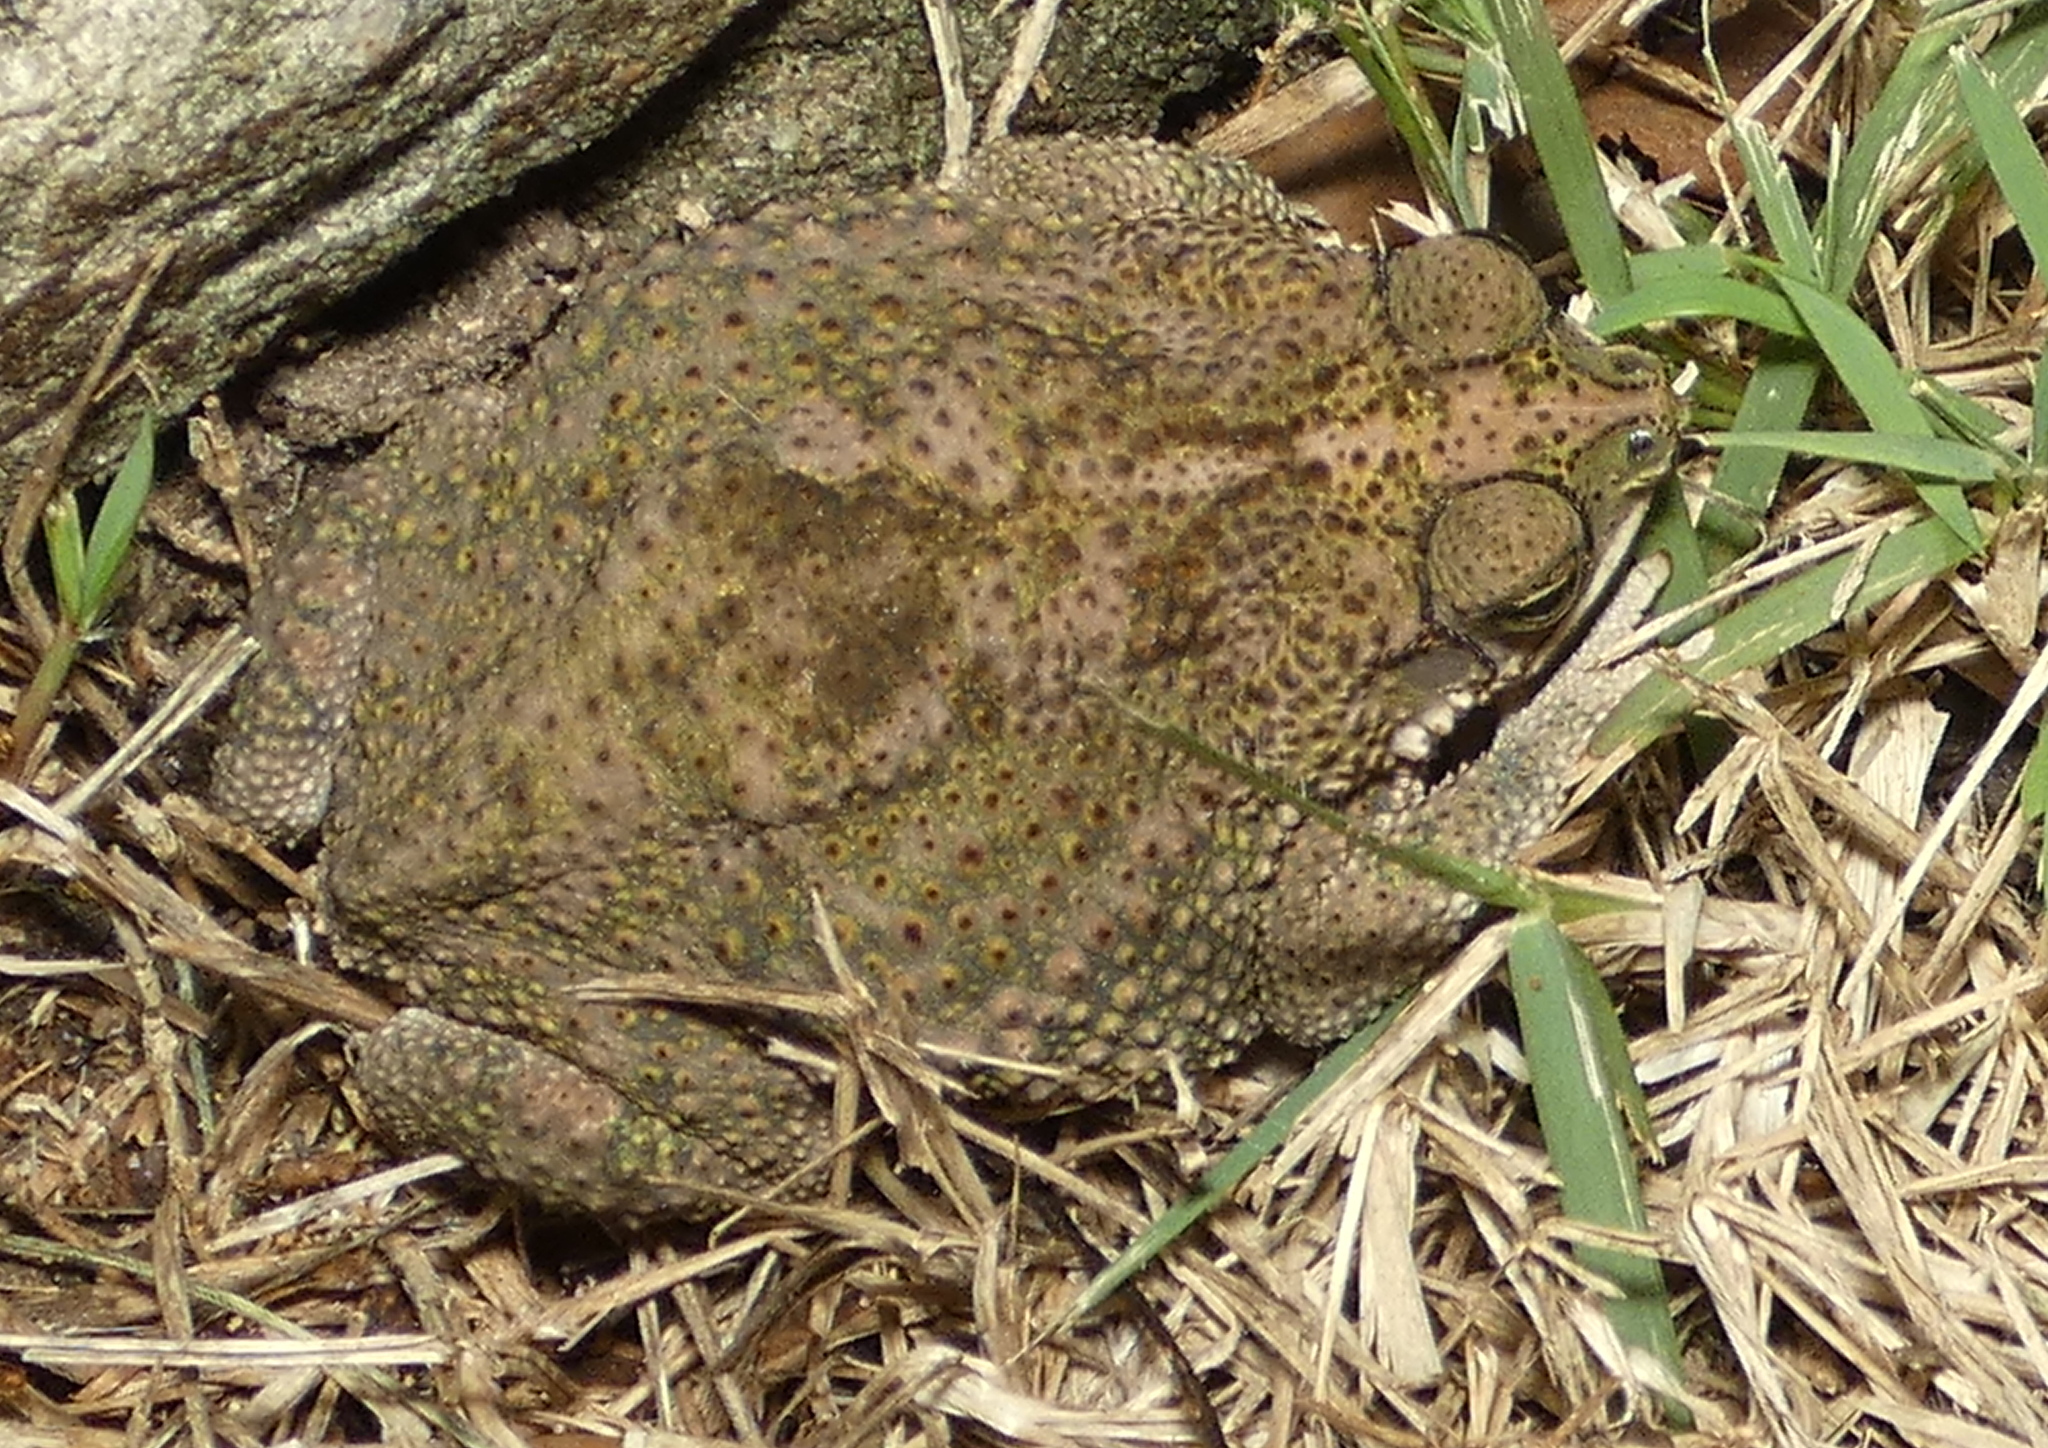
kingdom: Animalia
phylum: Chordata
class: Amphibia
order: Anura
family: Bufonidae
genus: Rhinella
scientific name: Rhinella granulosa
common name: Common lesser toad
